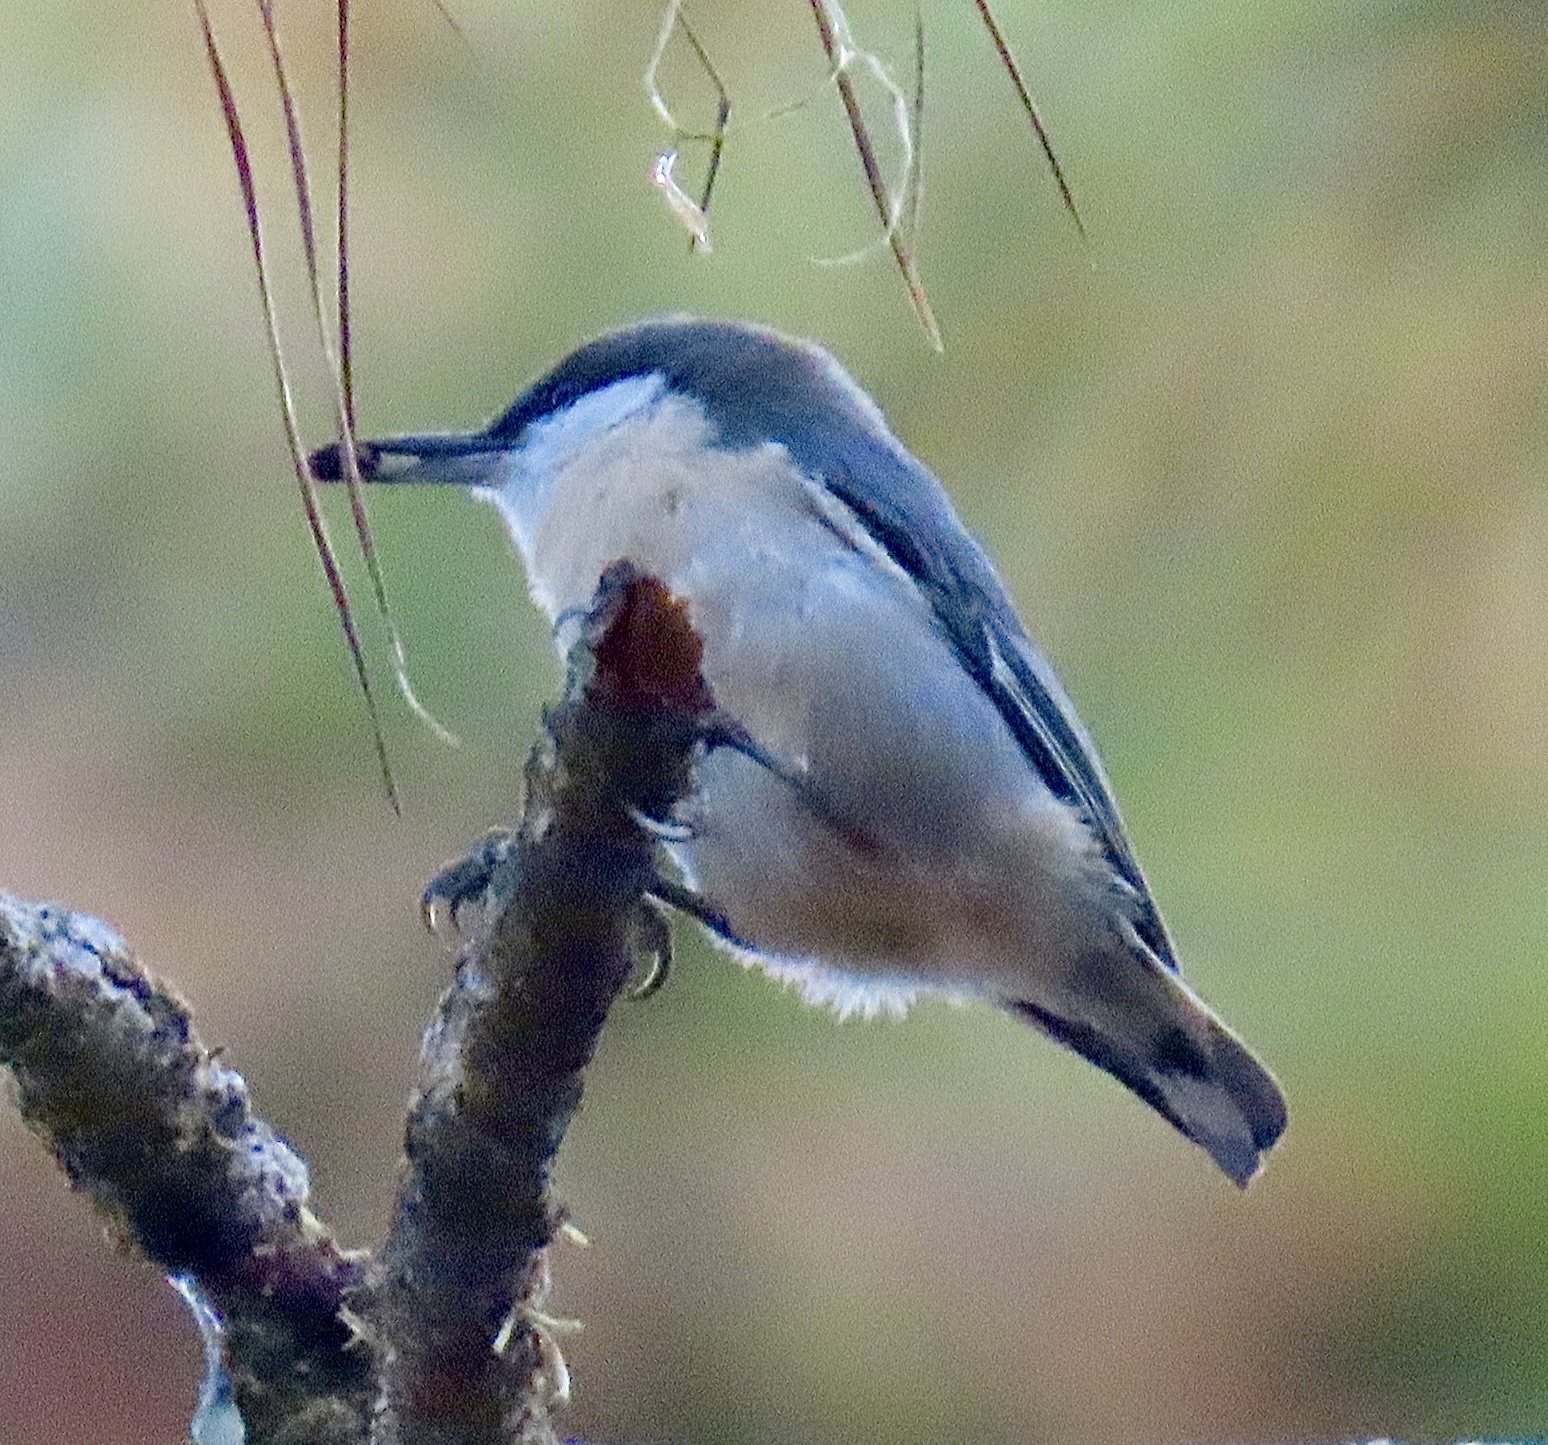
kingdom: Animalia
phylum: Chordata
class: Aves
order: Passeriformes
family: Sittidae
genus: Sitta
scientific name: Sitta pygmaea
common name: Pygmy nuthatch
